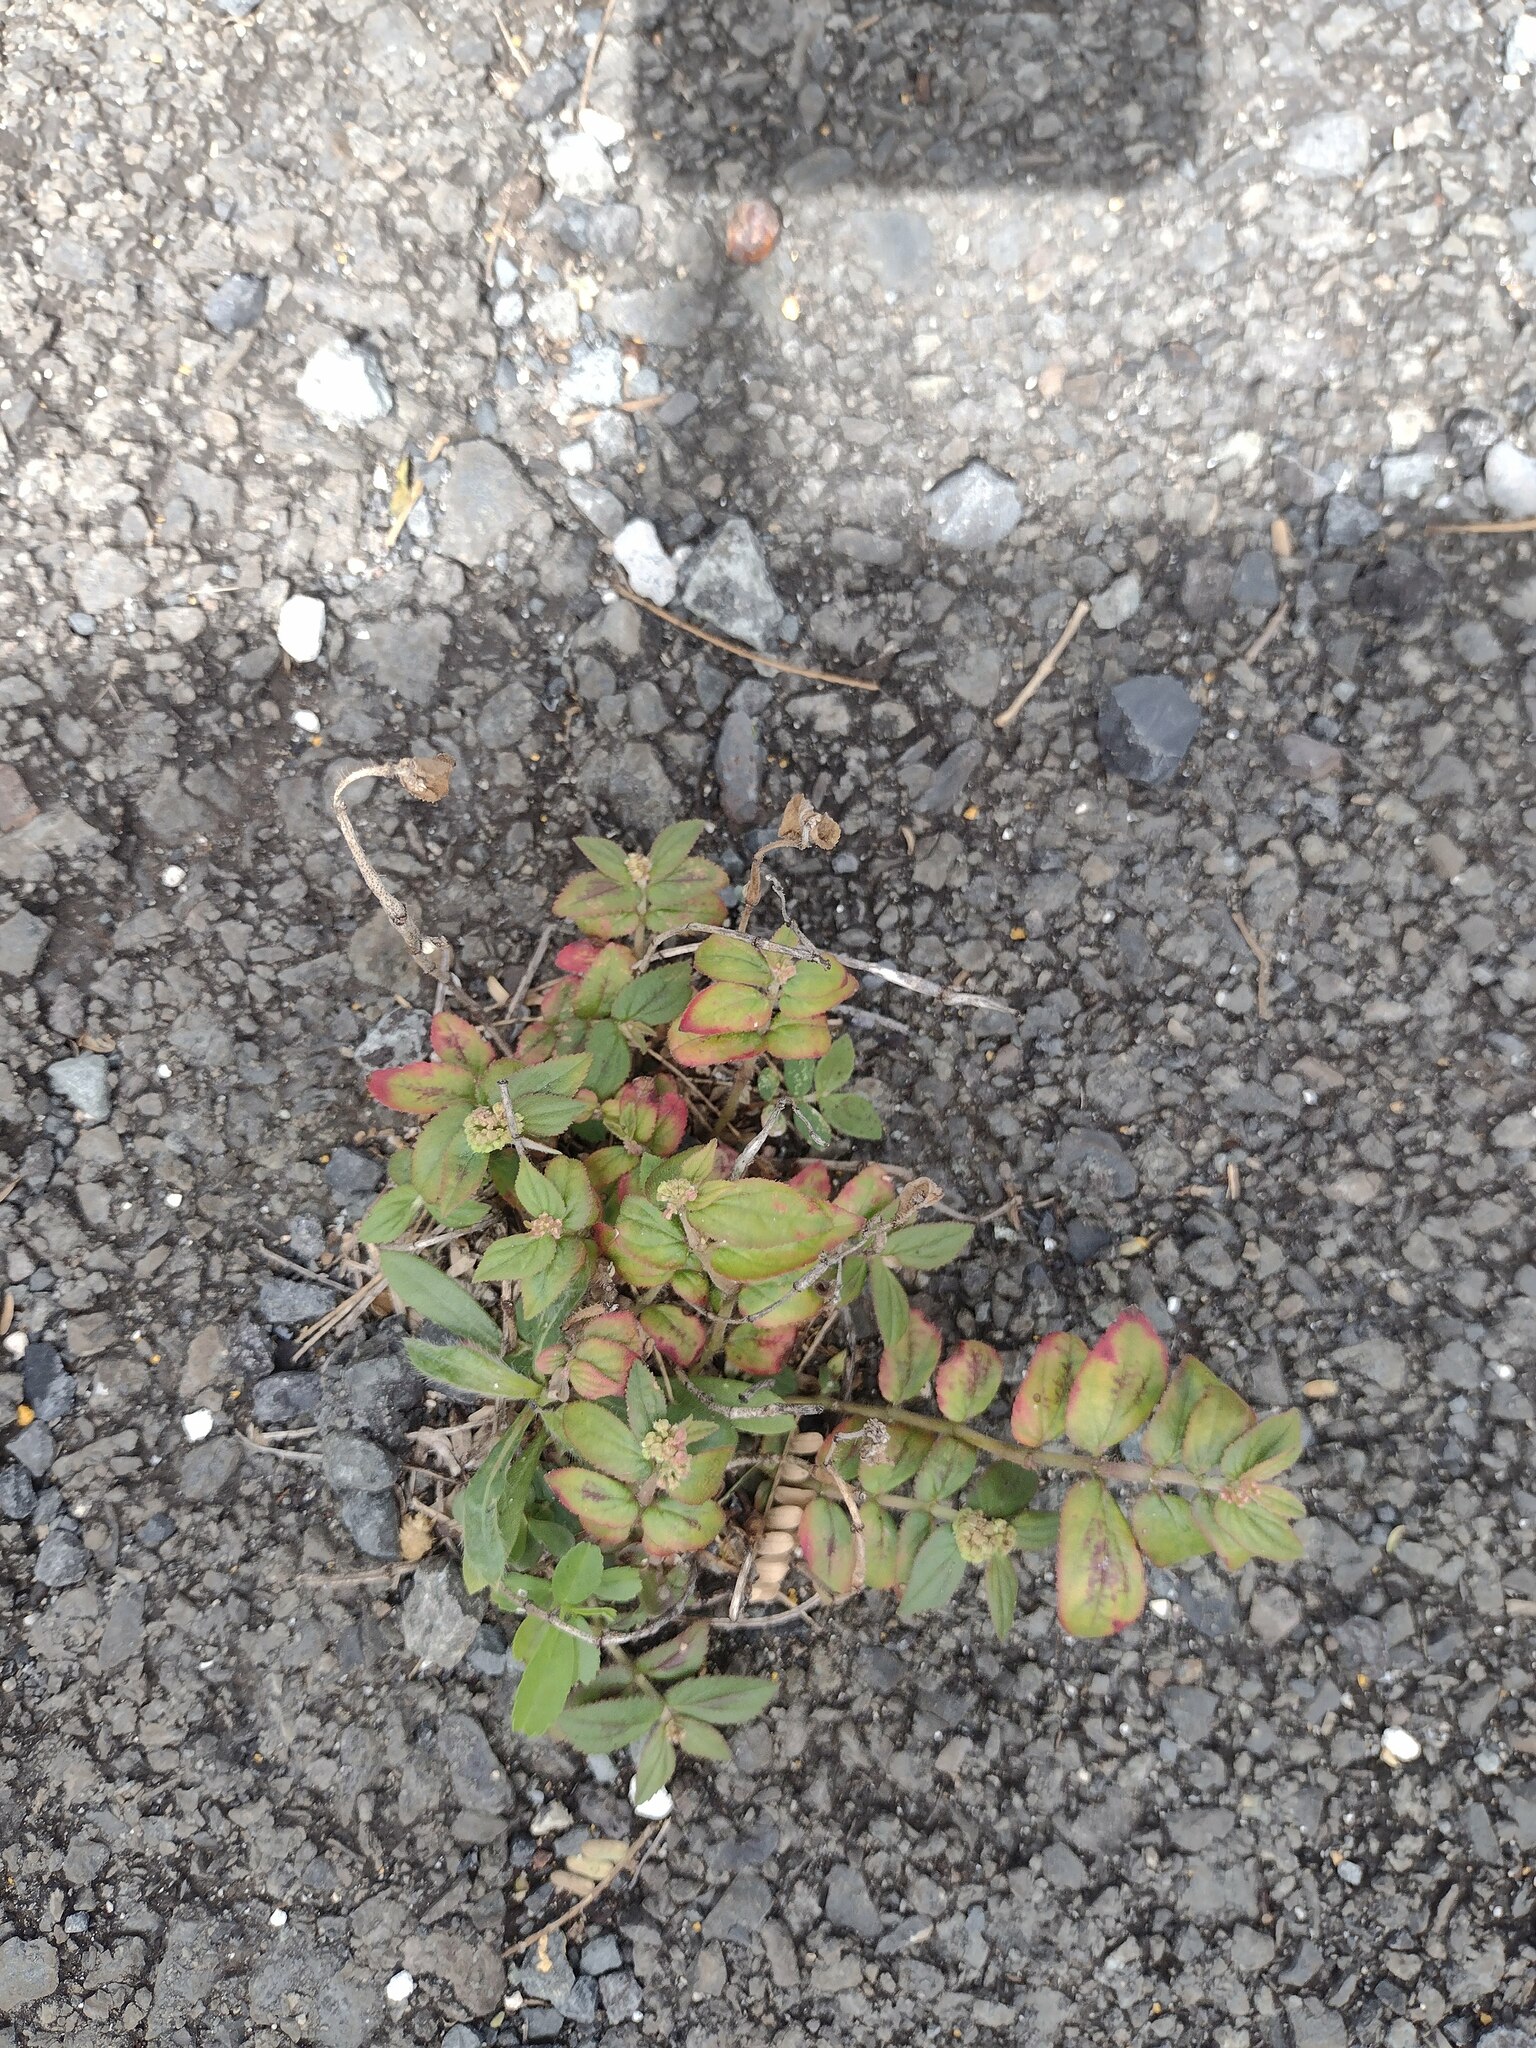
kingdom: Plantae
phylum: Tracheophyta
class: Magnoliopsida
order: Malpighiales
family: Euphorbiaceae
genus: Euphorbia
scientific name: Euphorbia hirta
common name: Pillpod sandmat
